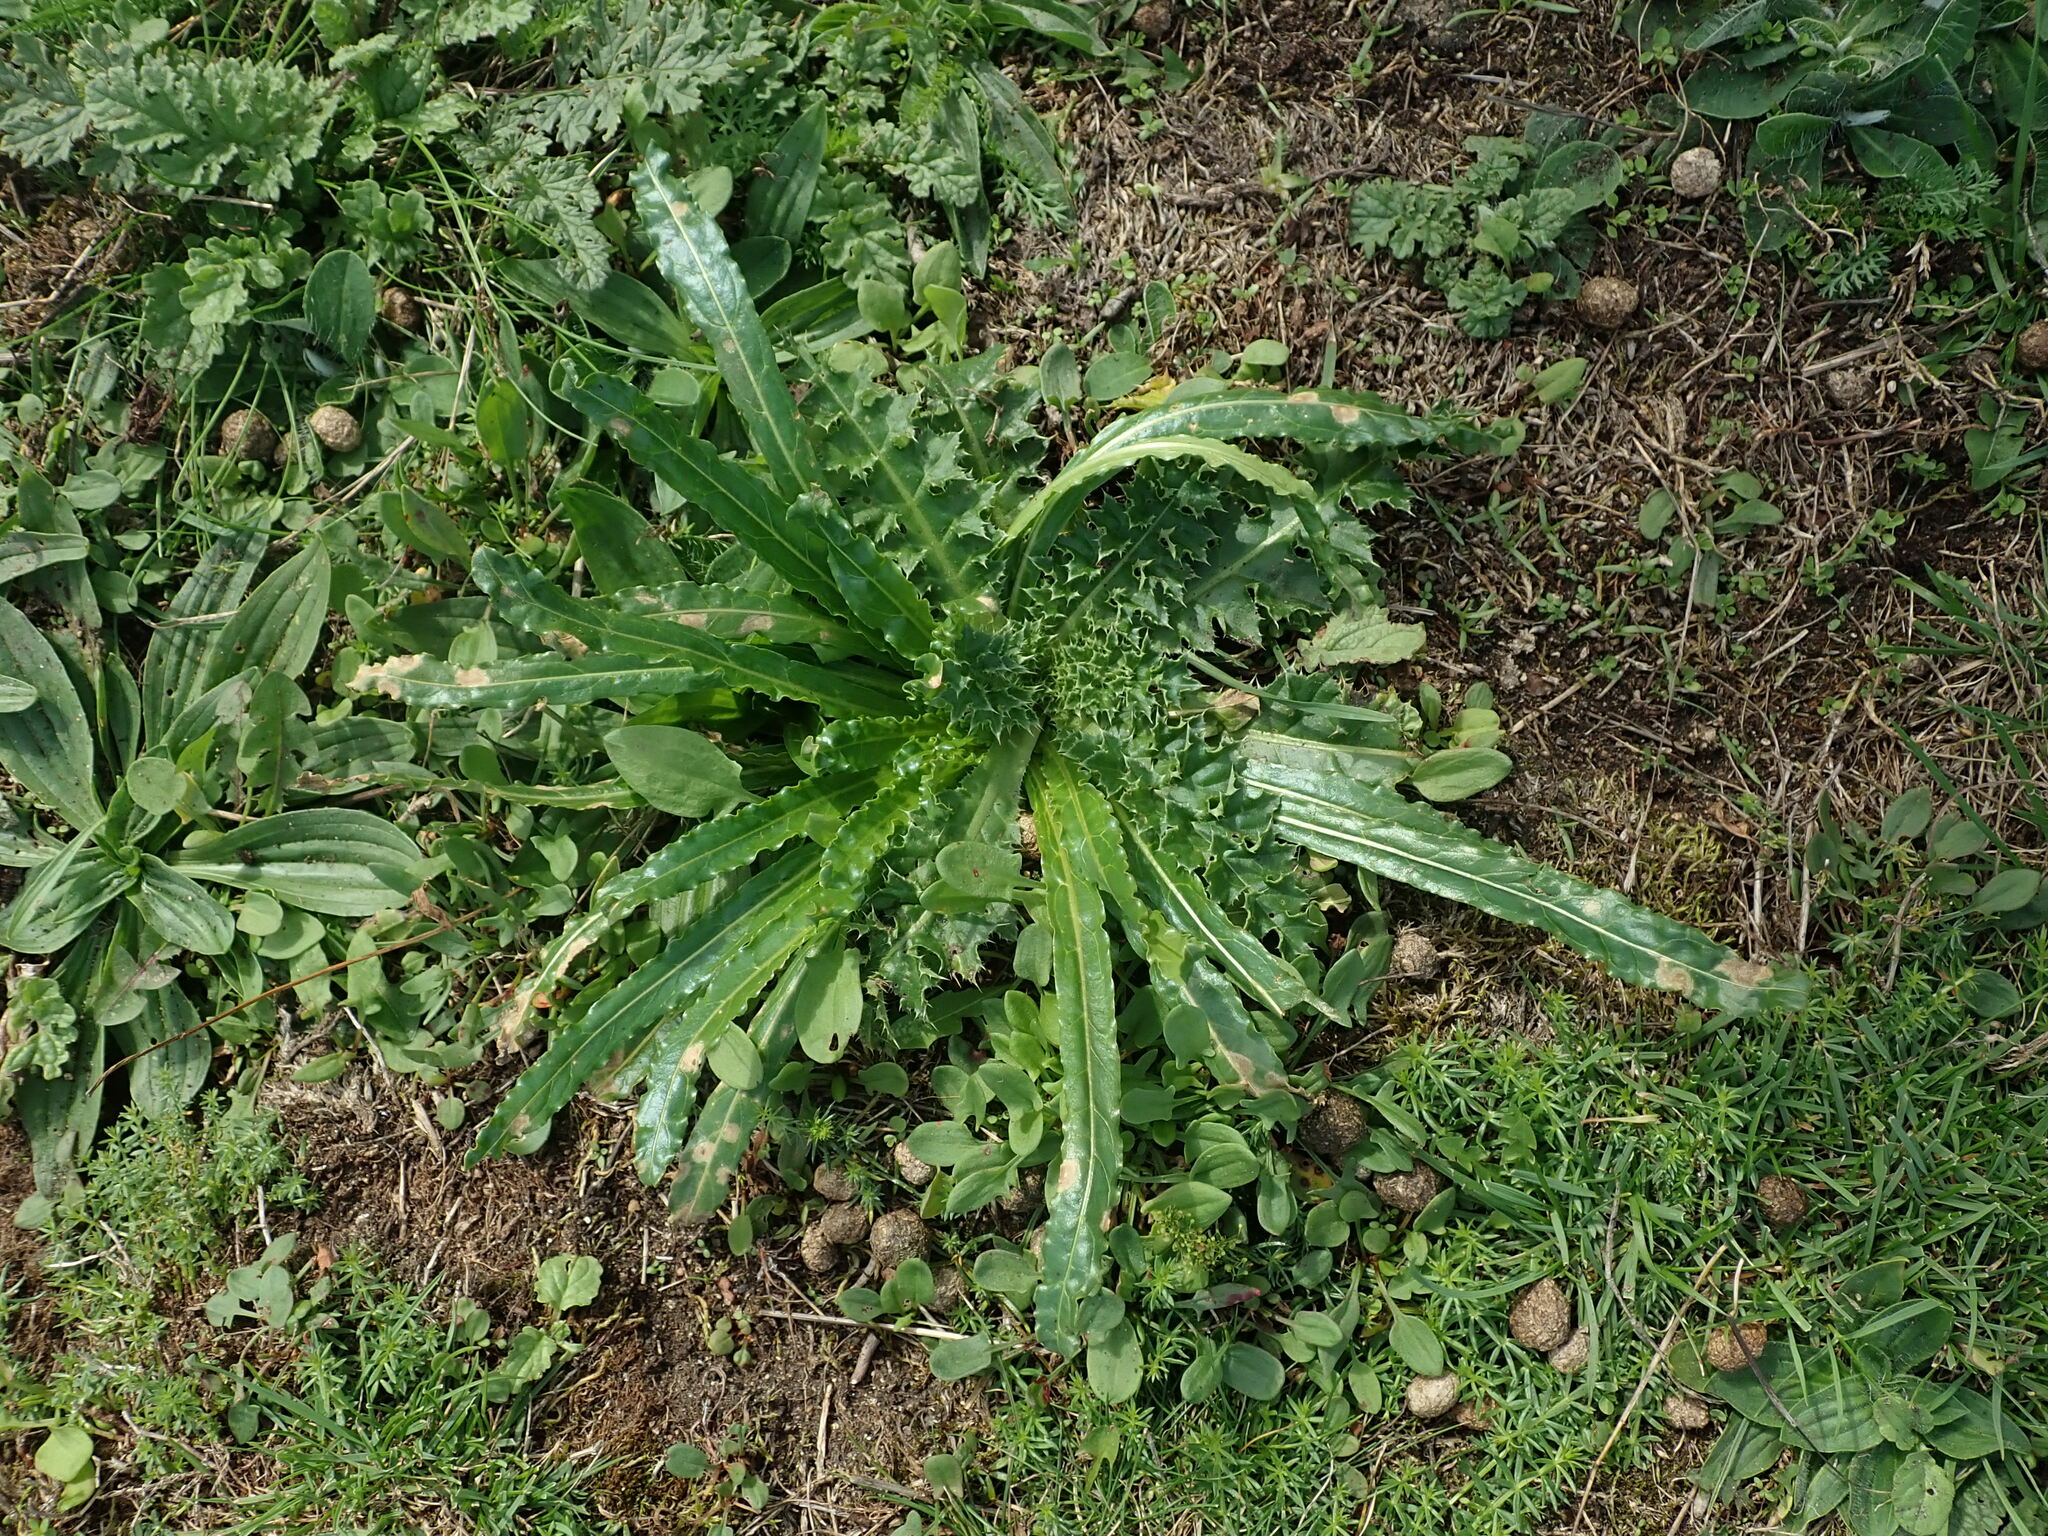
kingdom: Plantae
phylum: Tracheophyta
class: Magnoliopsida
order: Brassicales
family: Resedaceae
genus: Reseda
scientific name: Reseda luteola
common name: Weld
